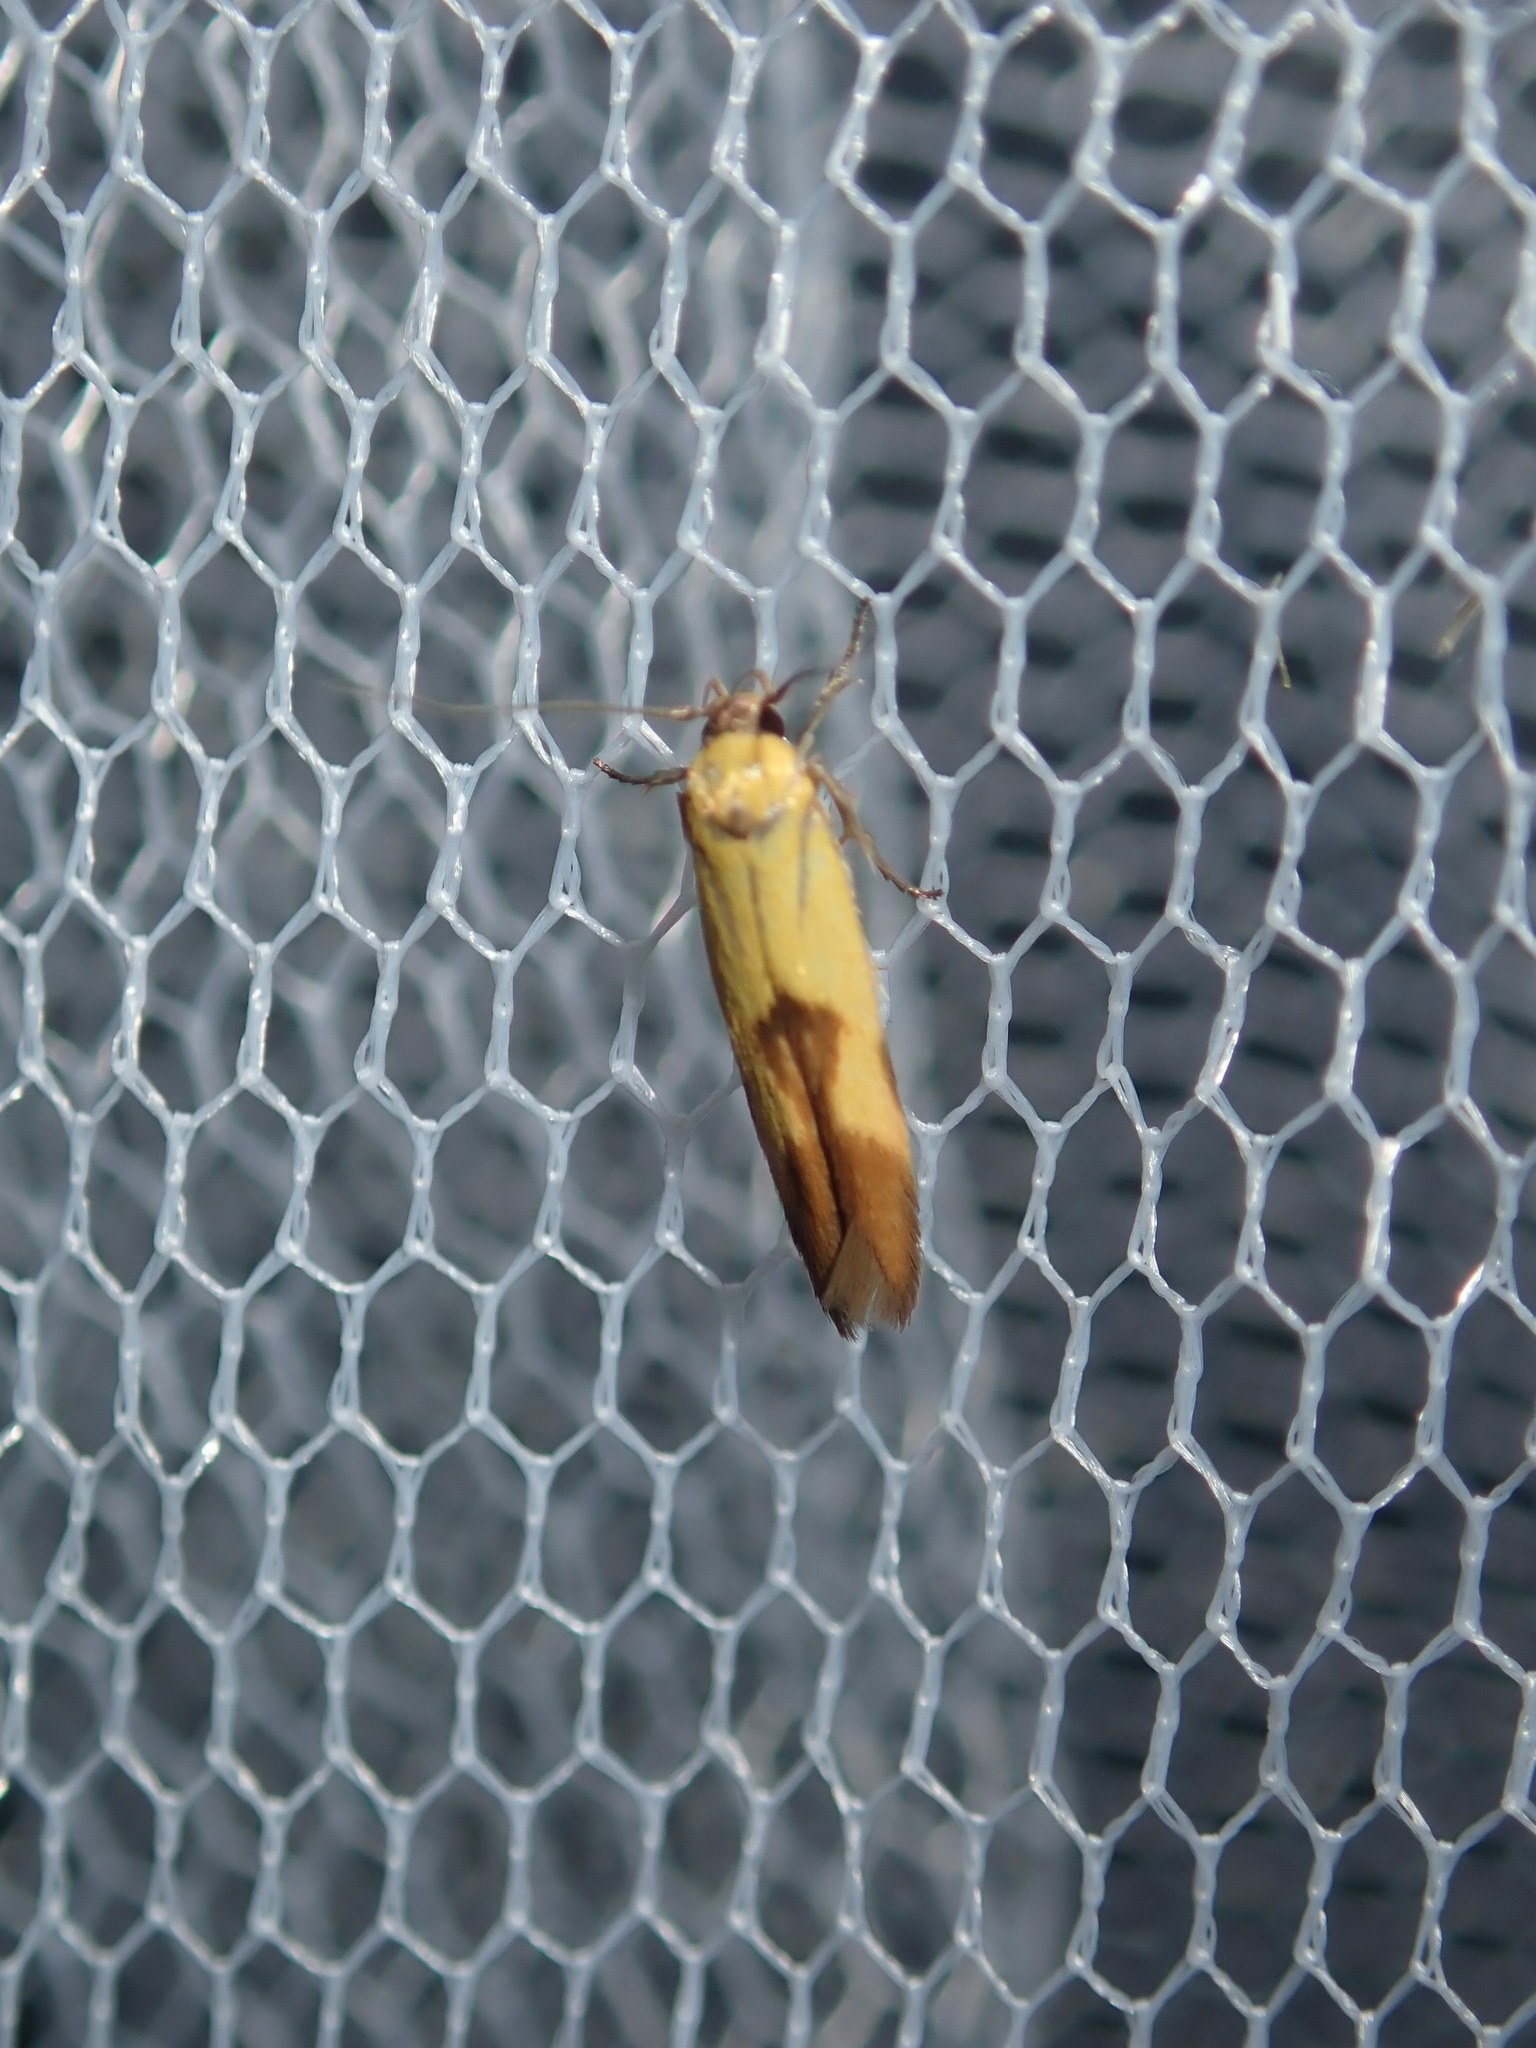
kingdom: Animalia
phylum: Arthropoda
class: Insecta
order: Lepidoptera
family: Stathmopodidae
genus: Stathmopoda
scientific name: Stathmopoda auriferella
